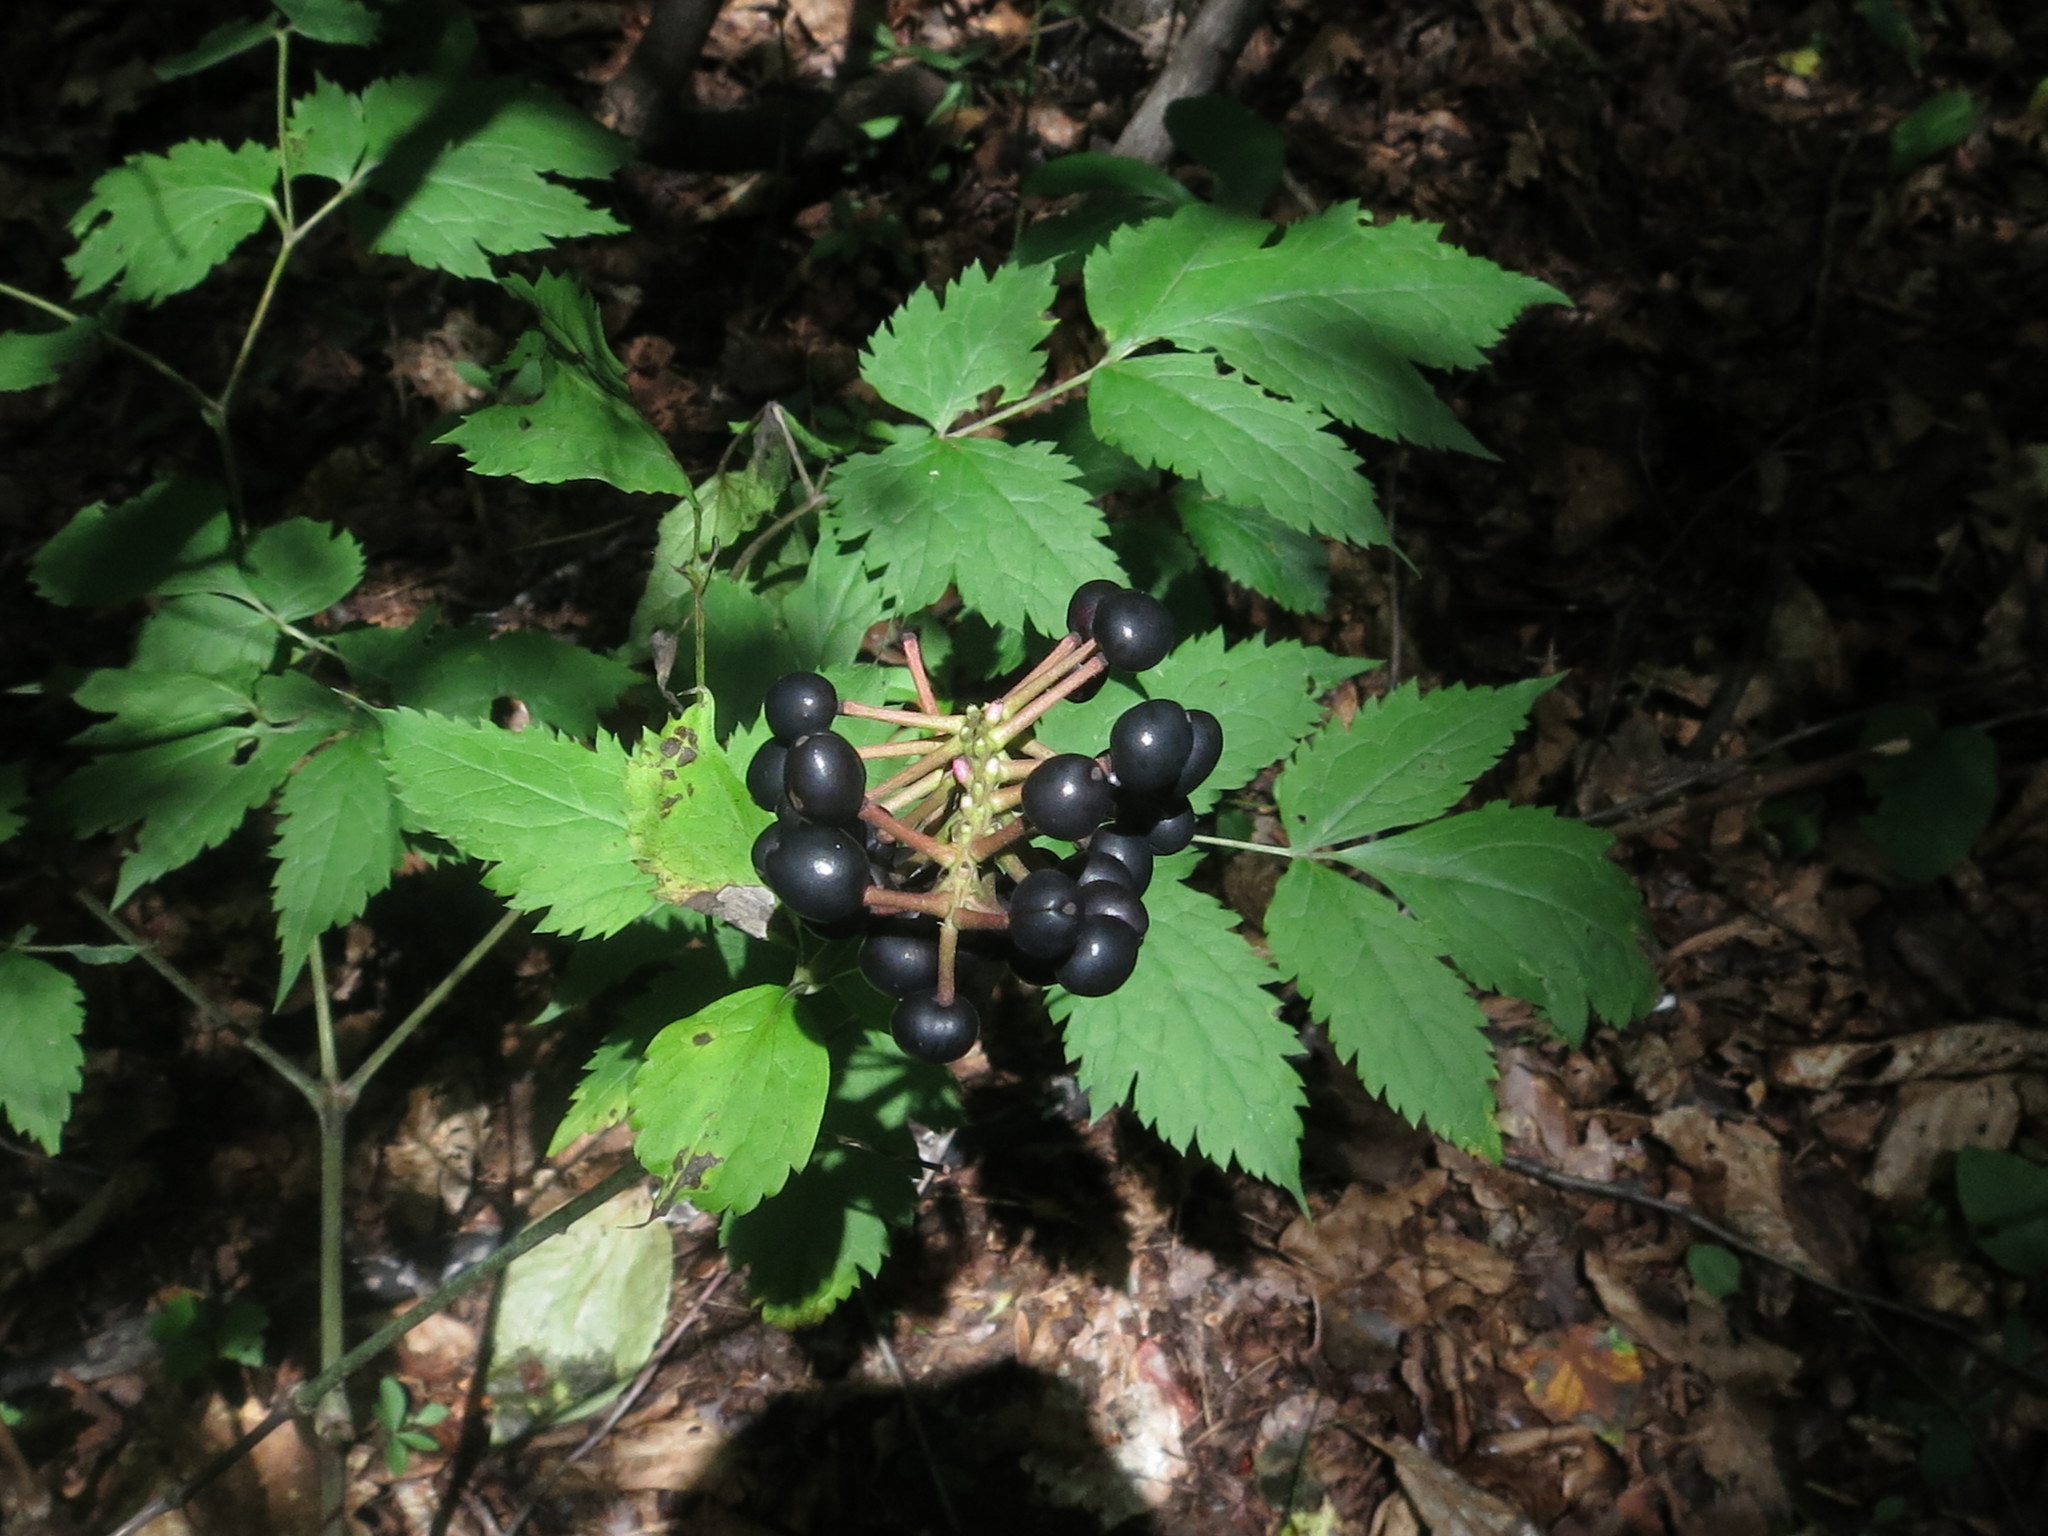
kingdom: Plantae
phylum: Tracheophyta
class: Magnoliopsida
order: Ranunculales
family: Ranunculaceae
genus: Actaea
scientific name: Actaea asiatica
